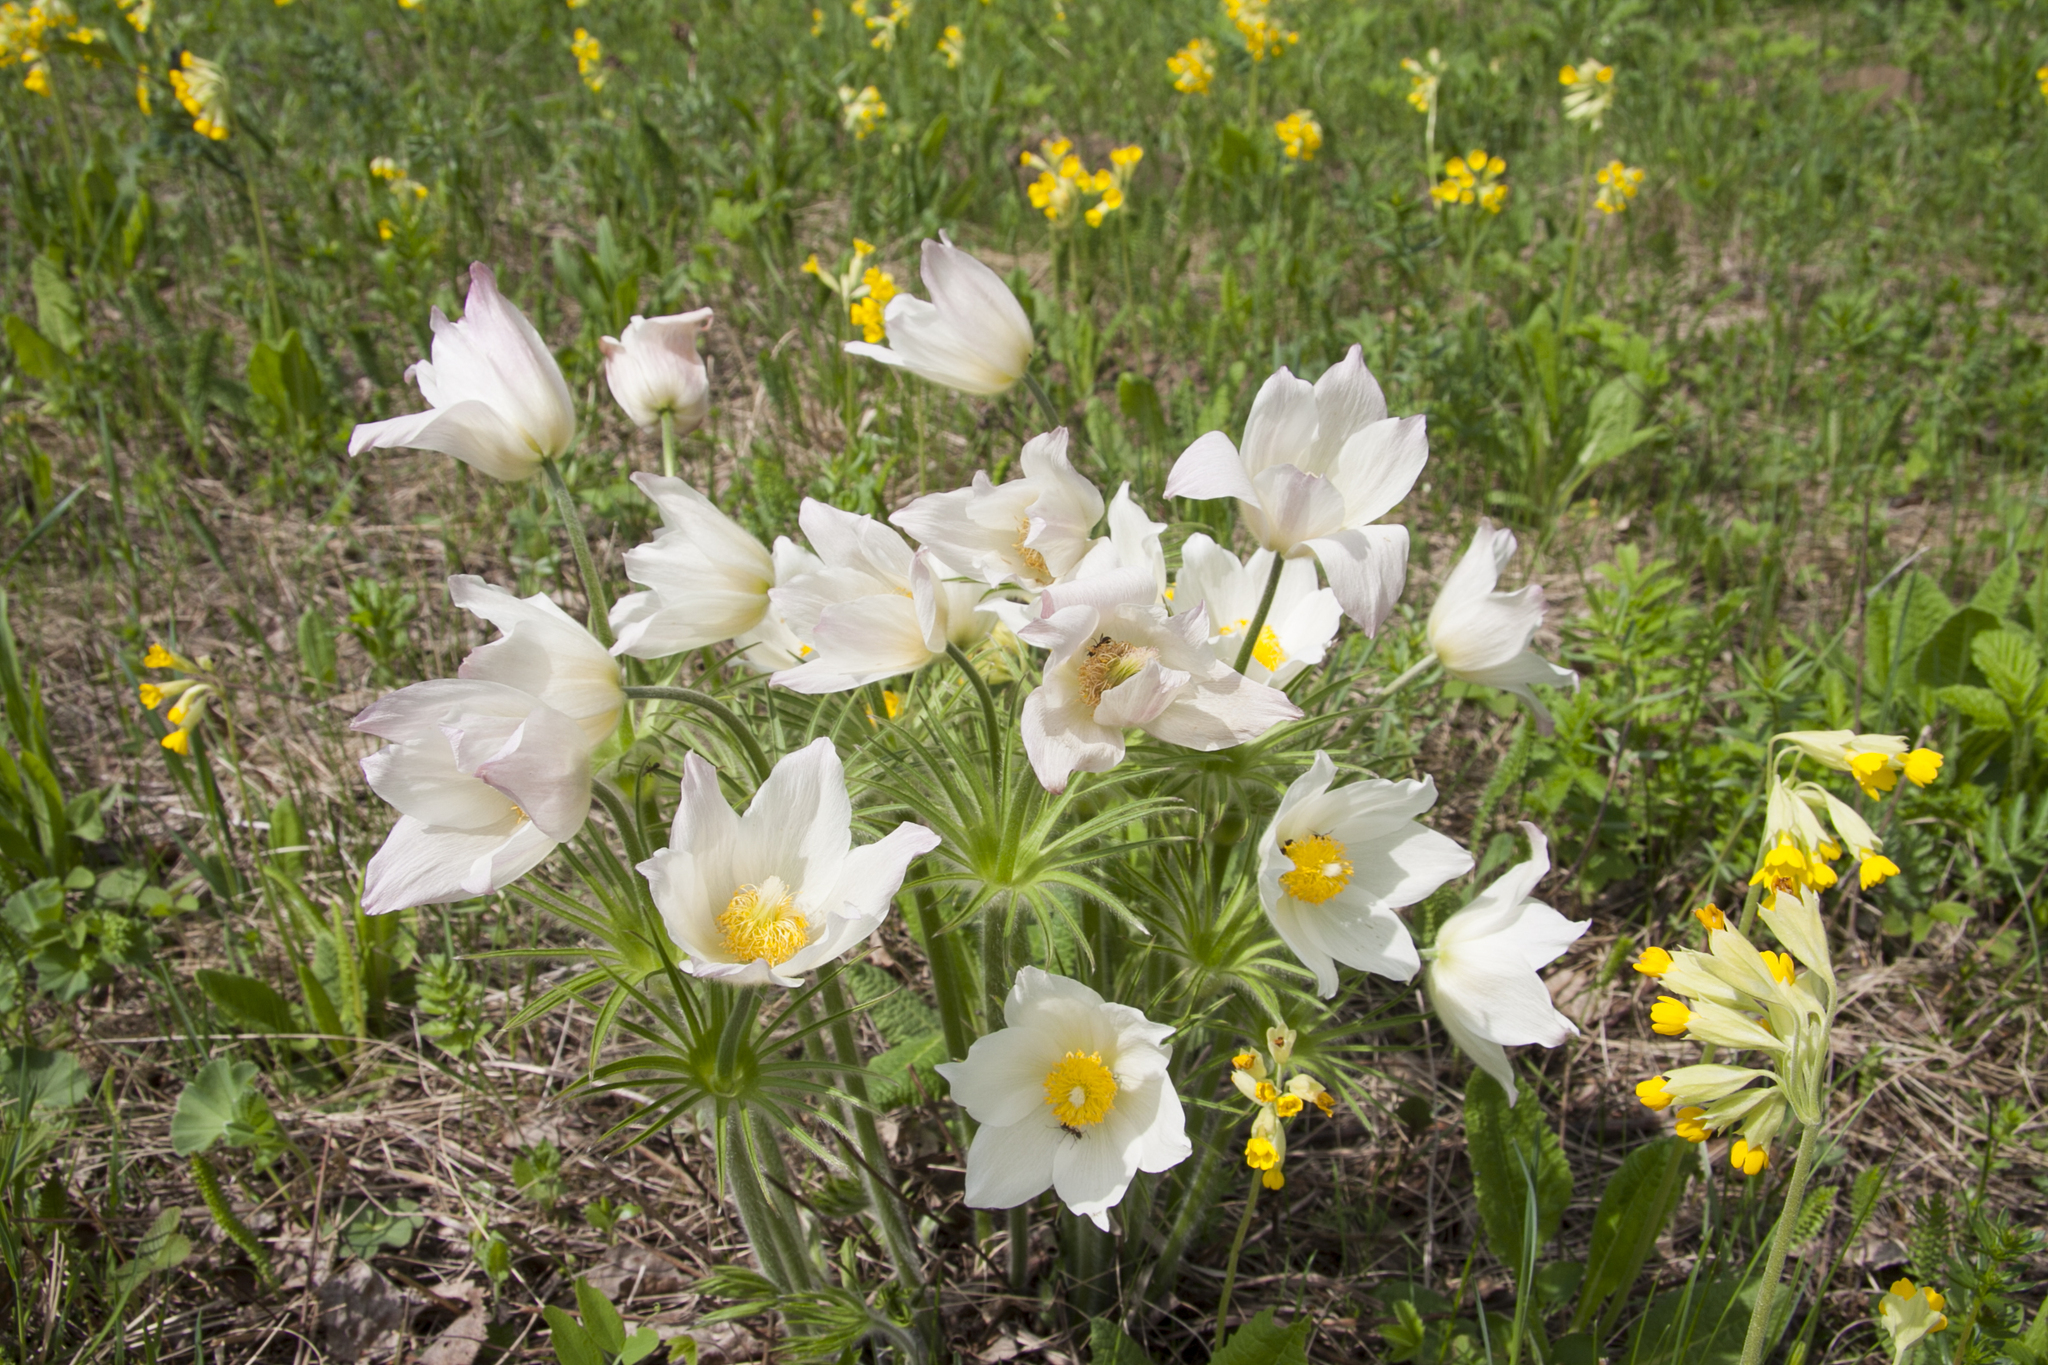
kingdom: Plantae
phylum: Tracheophyta
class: Magnoliopsida
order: Ranunculales
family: Ranunculaceae
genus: Pulsatilla
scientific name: Pulsatilla patens
